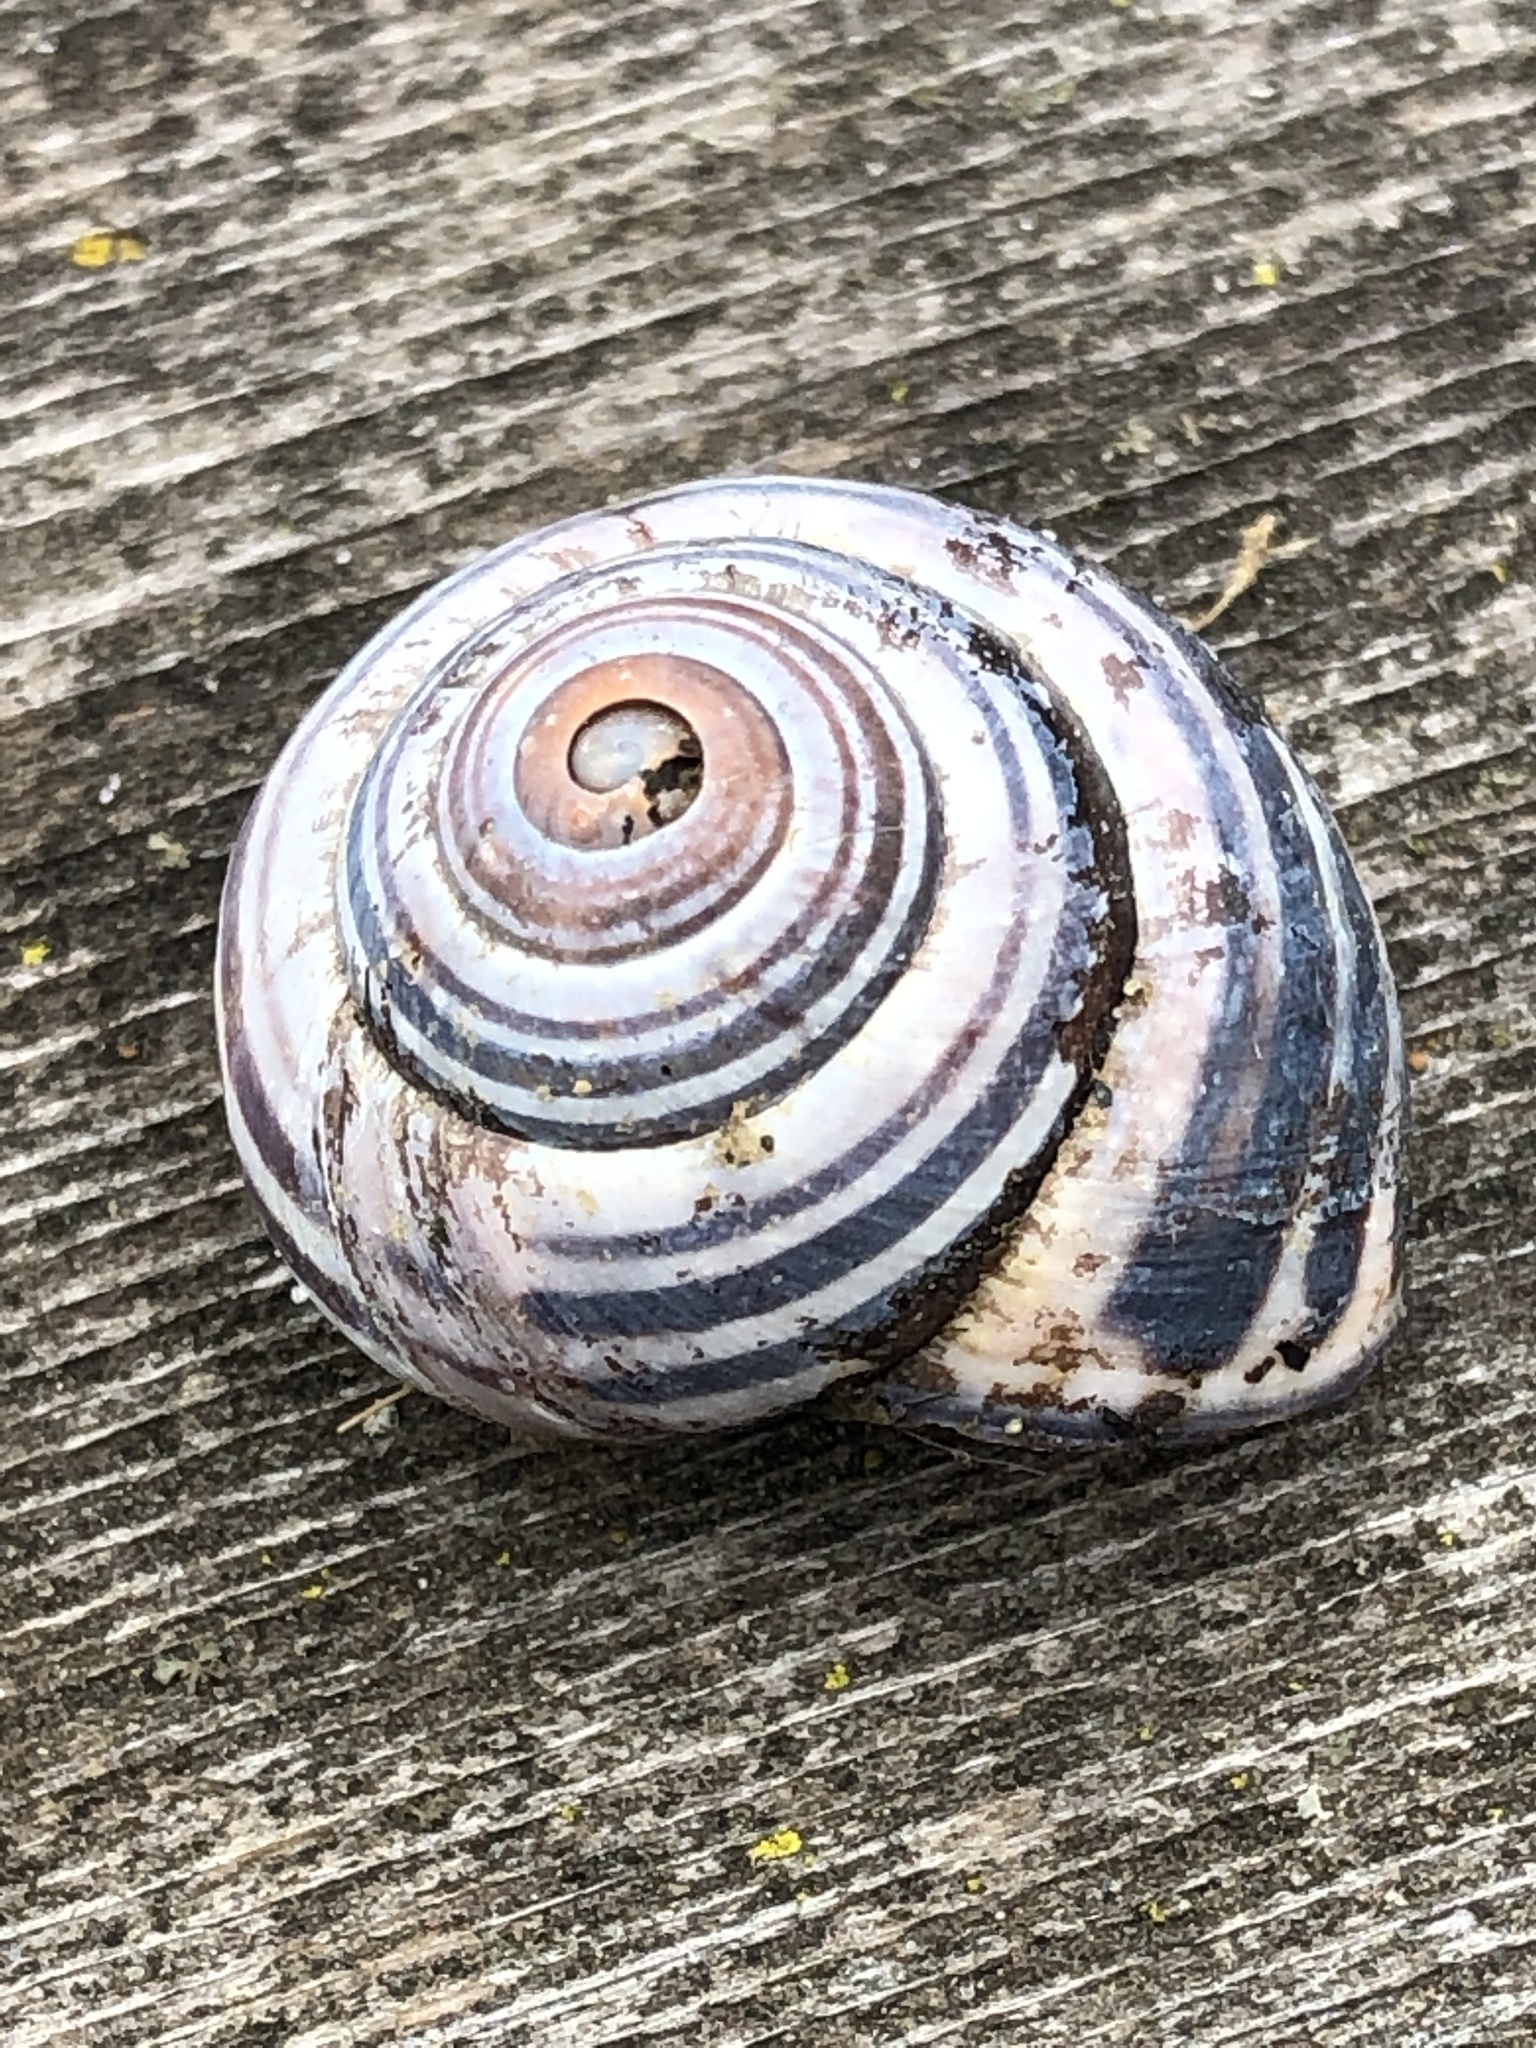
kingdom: Animalia
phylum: Mollusca
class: Gastropoda
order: Stylommatophora
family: Helicidae
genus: Cepaea
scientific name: Cepaea nemoralis
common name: Grovesnail
